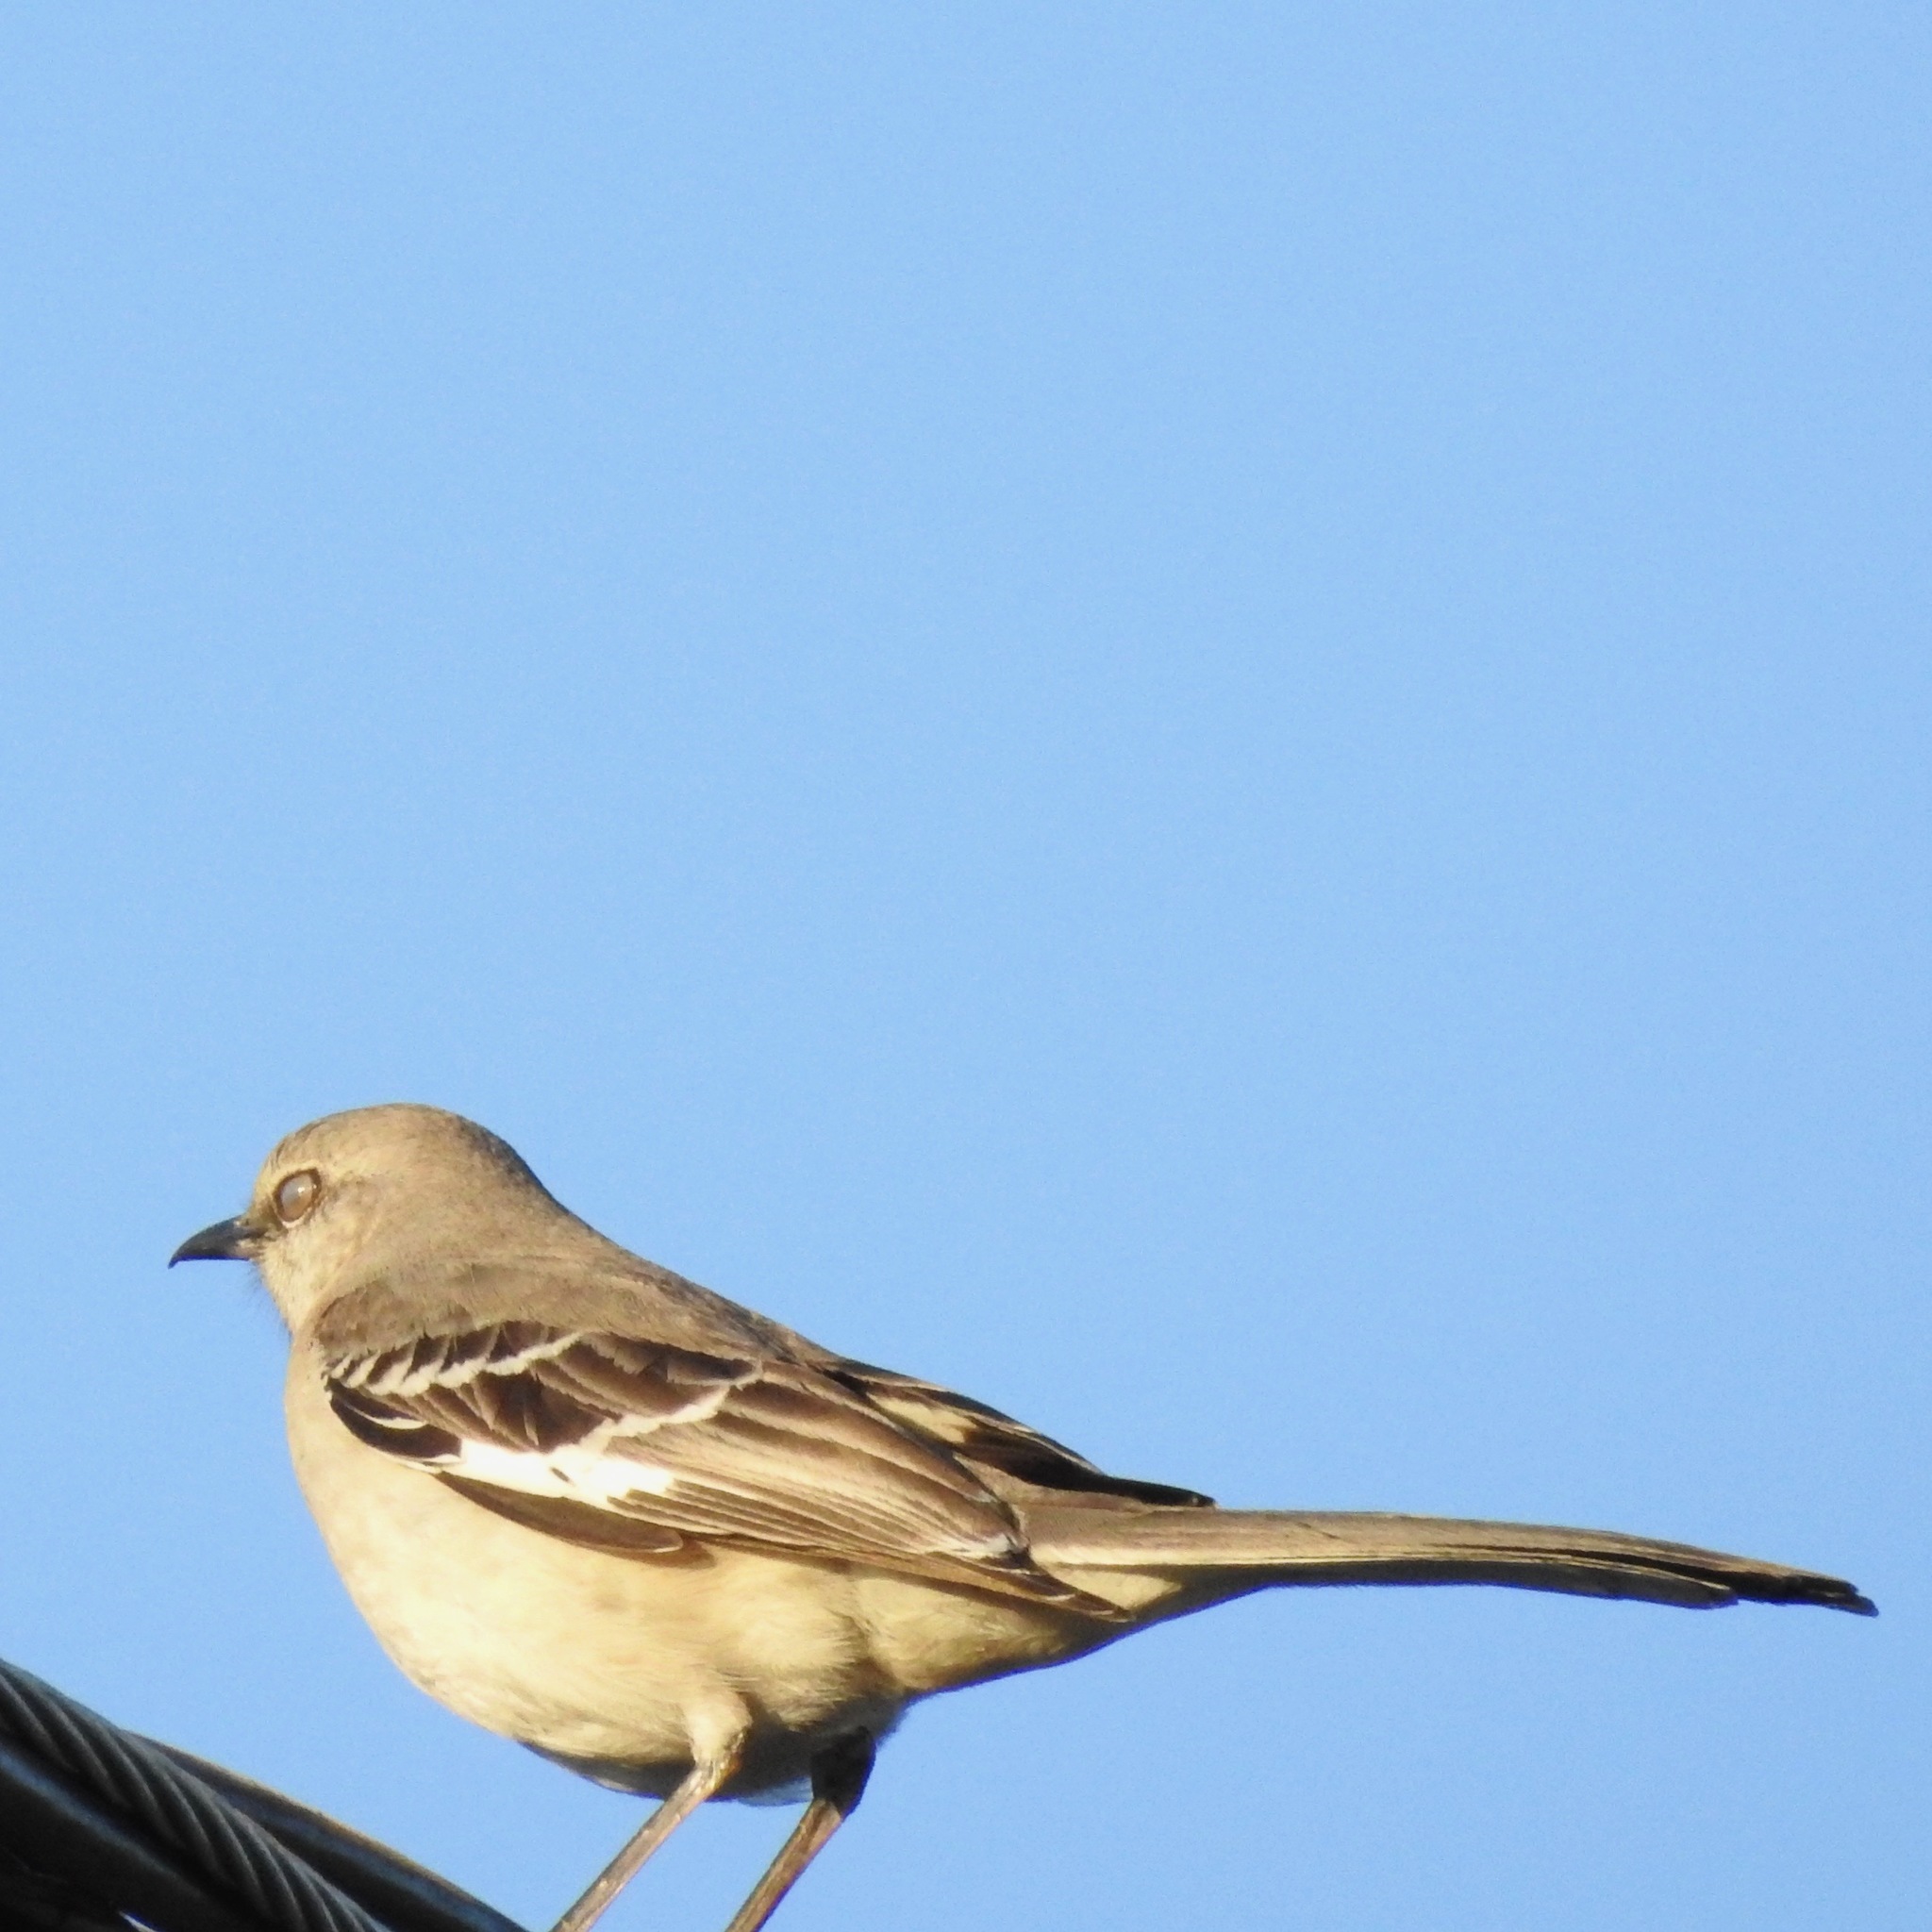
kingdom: Animalia
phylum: Chordata
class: Aves
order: Passeriformes
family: Mimidae
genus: Mimus
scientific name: Mimus polyglottos
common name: Northern mockingbird
